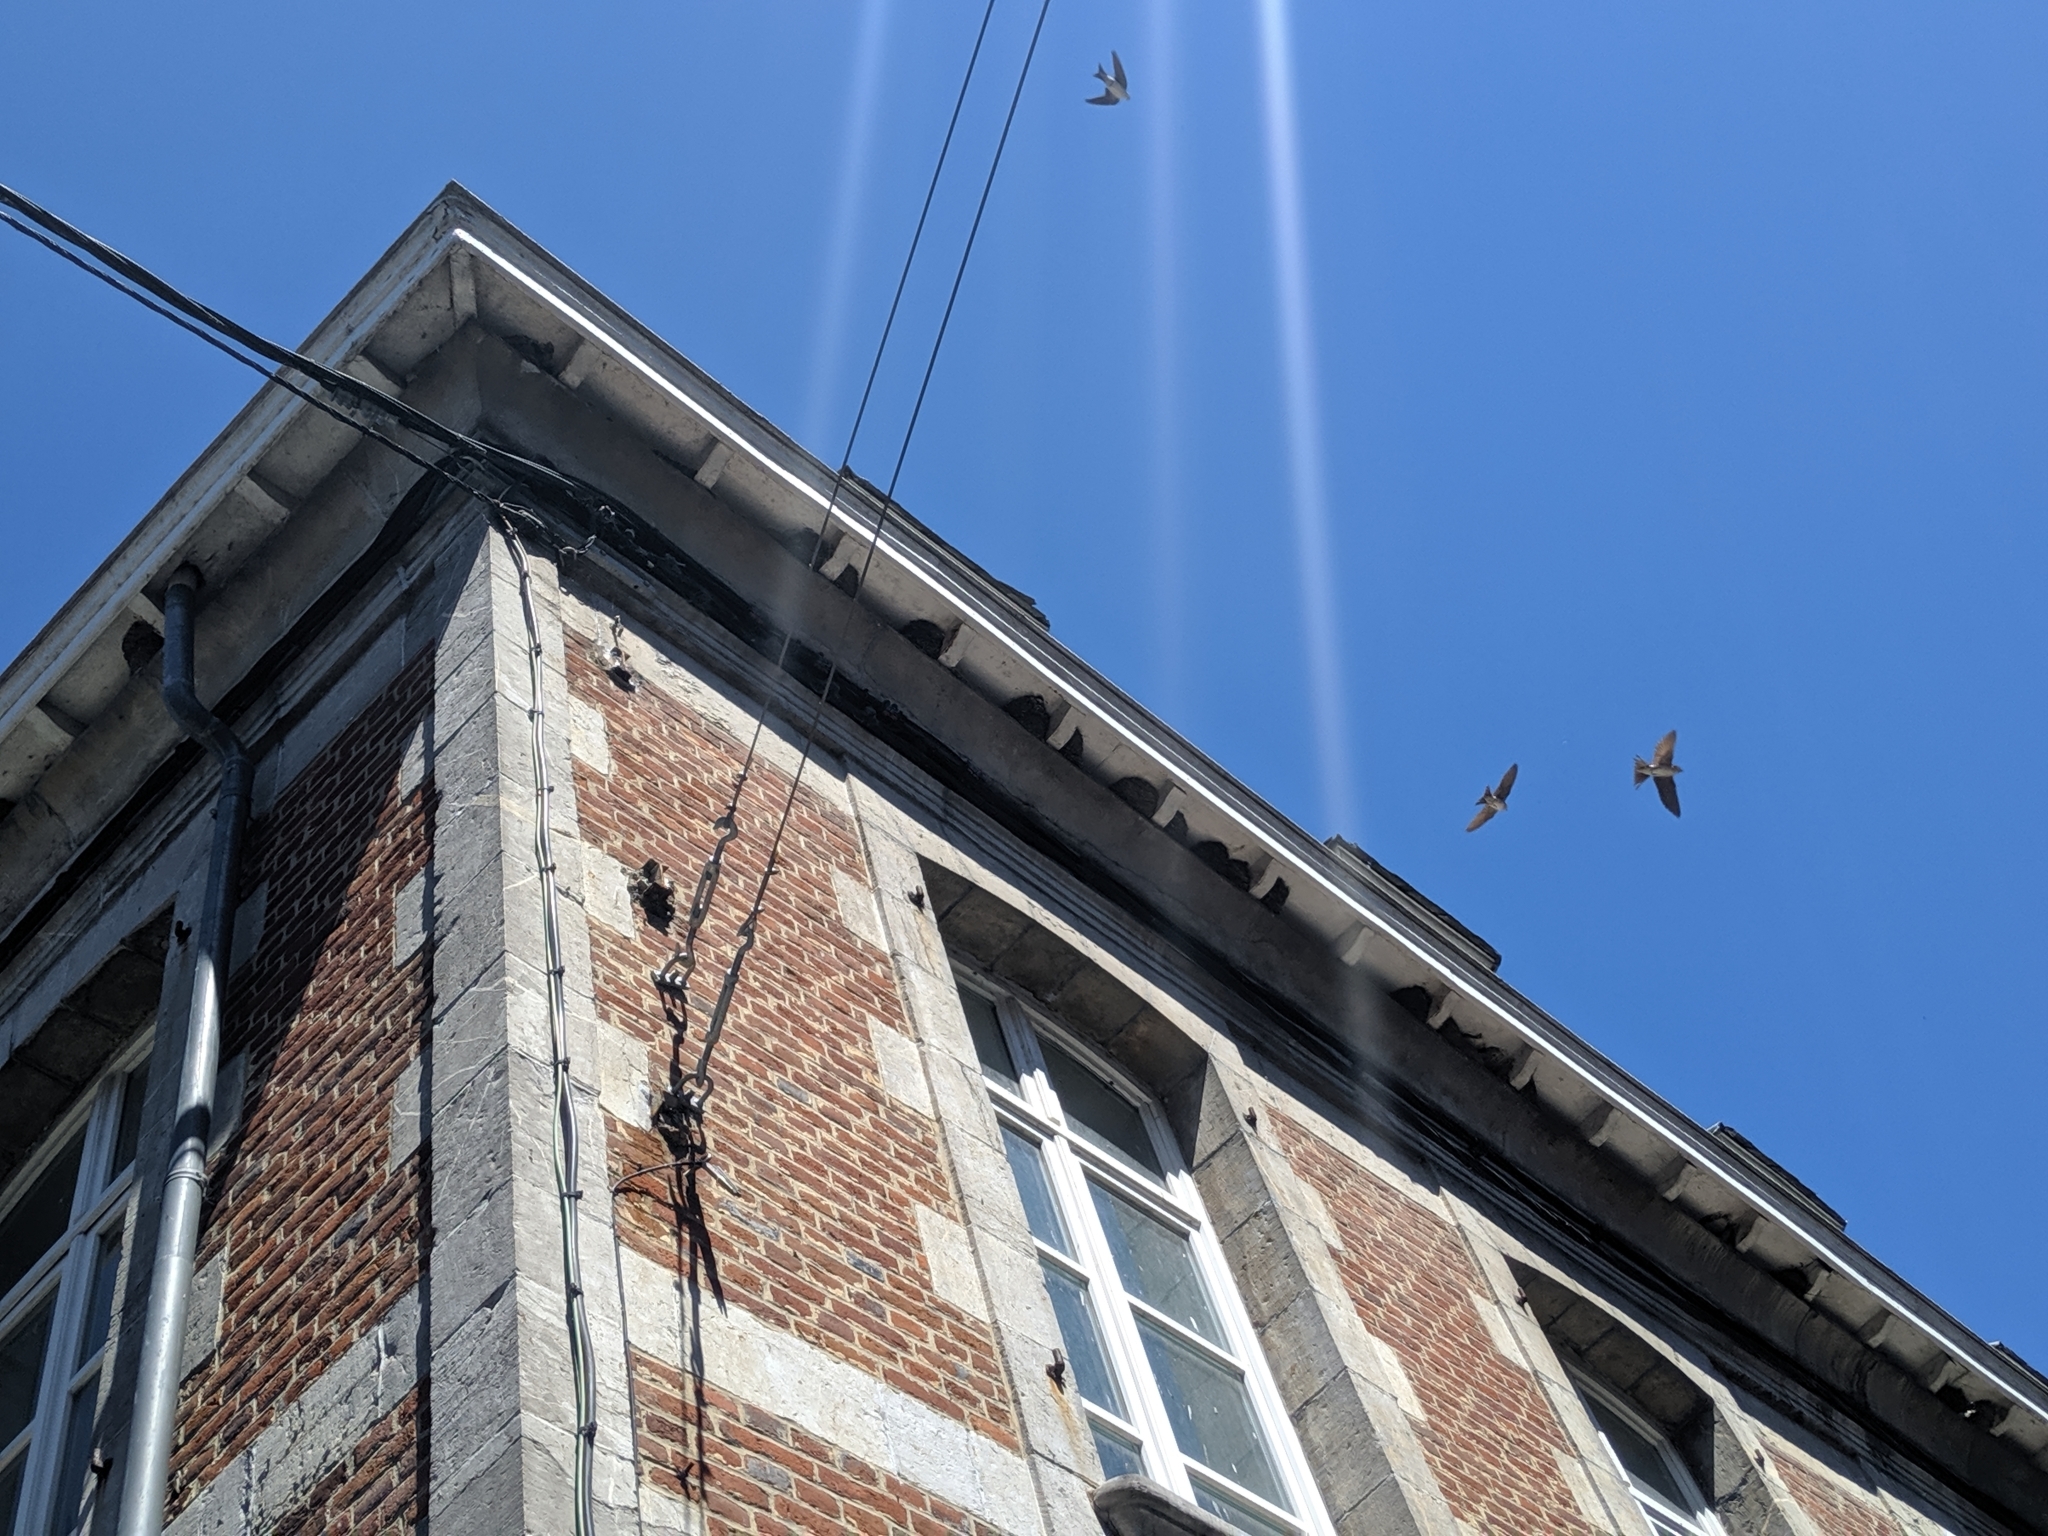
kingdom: Animalia
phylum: Chordata
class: Aves
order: Passeriformes
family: Hirundinidae
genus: Delichon
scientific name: Delichon urbicum
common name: Common house martin
